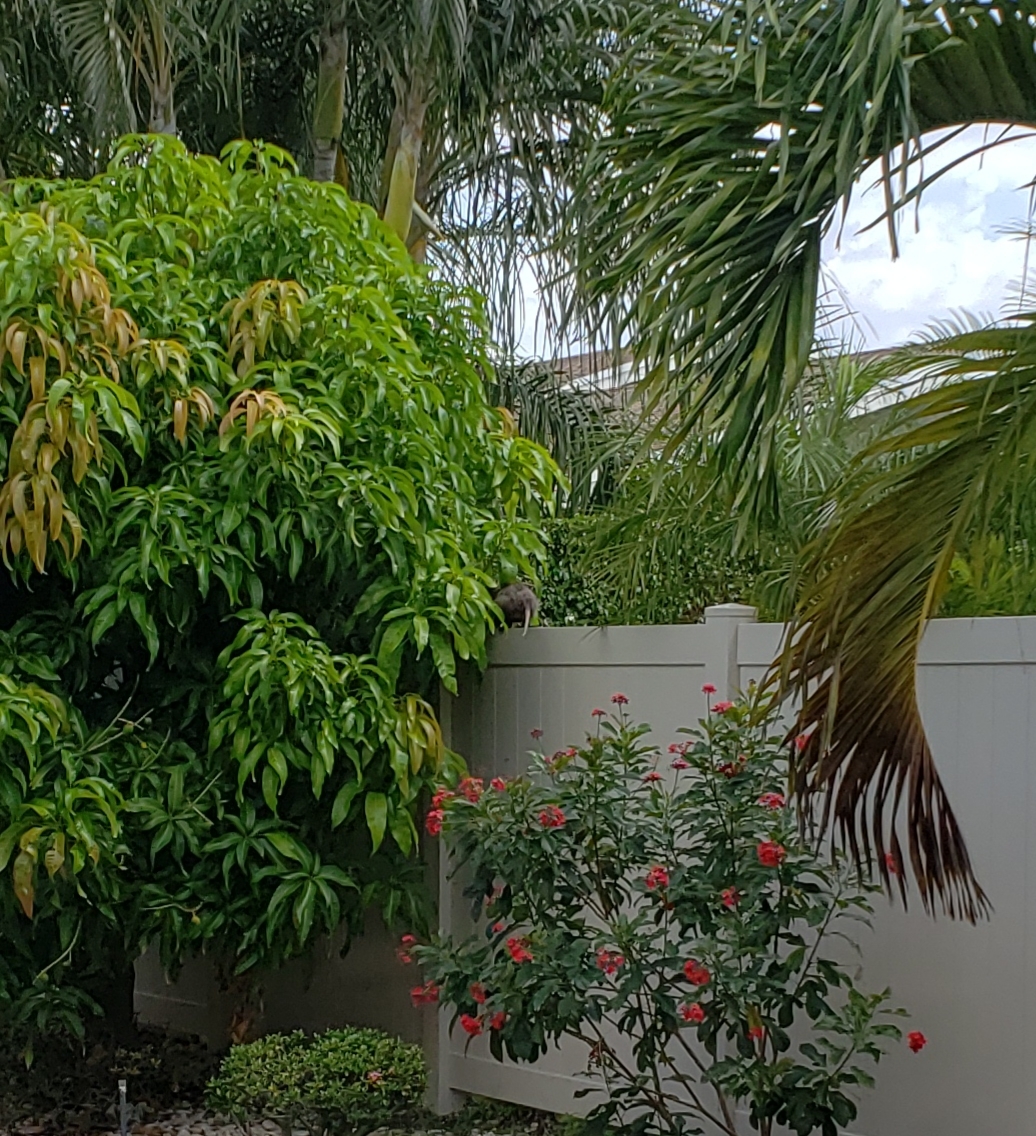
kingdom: Animalia
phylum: Chordata
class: Mammalia
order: Didelphimorphia
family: Didelphidae
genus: Didelphis
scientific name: Didelphis virginiana
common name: Virginia opossum
